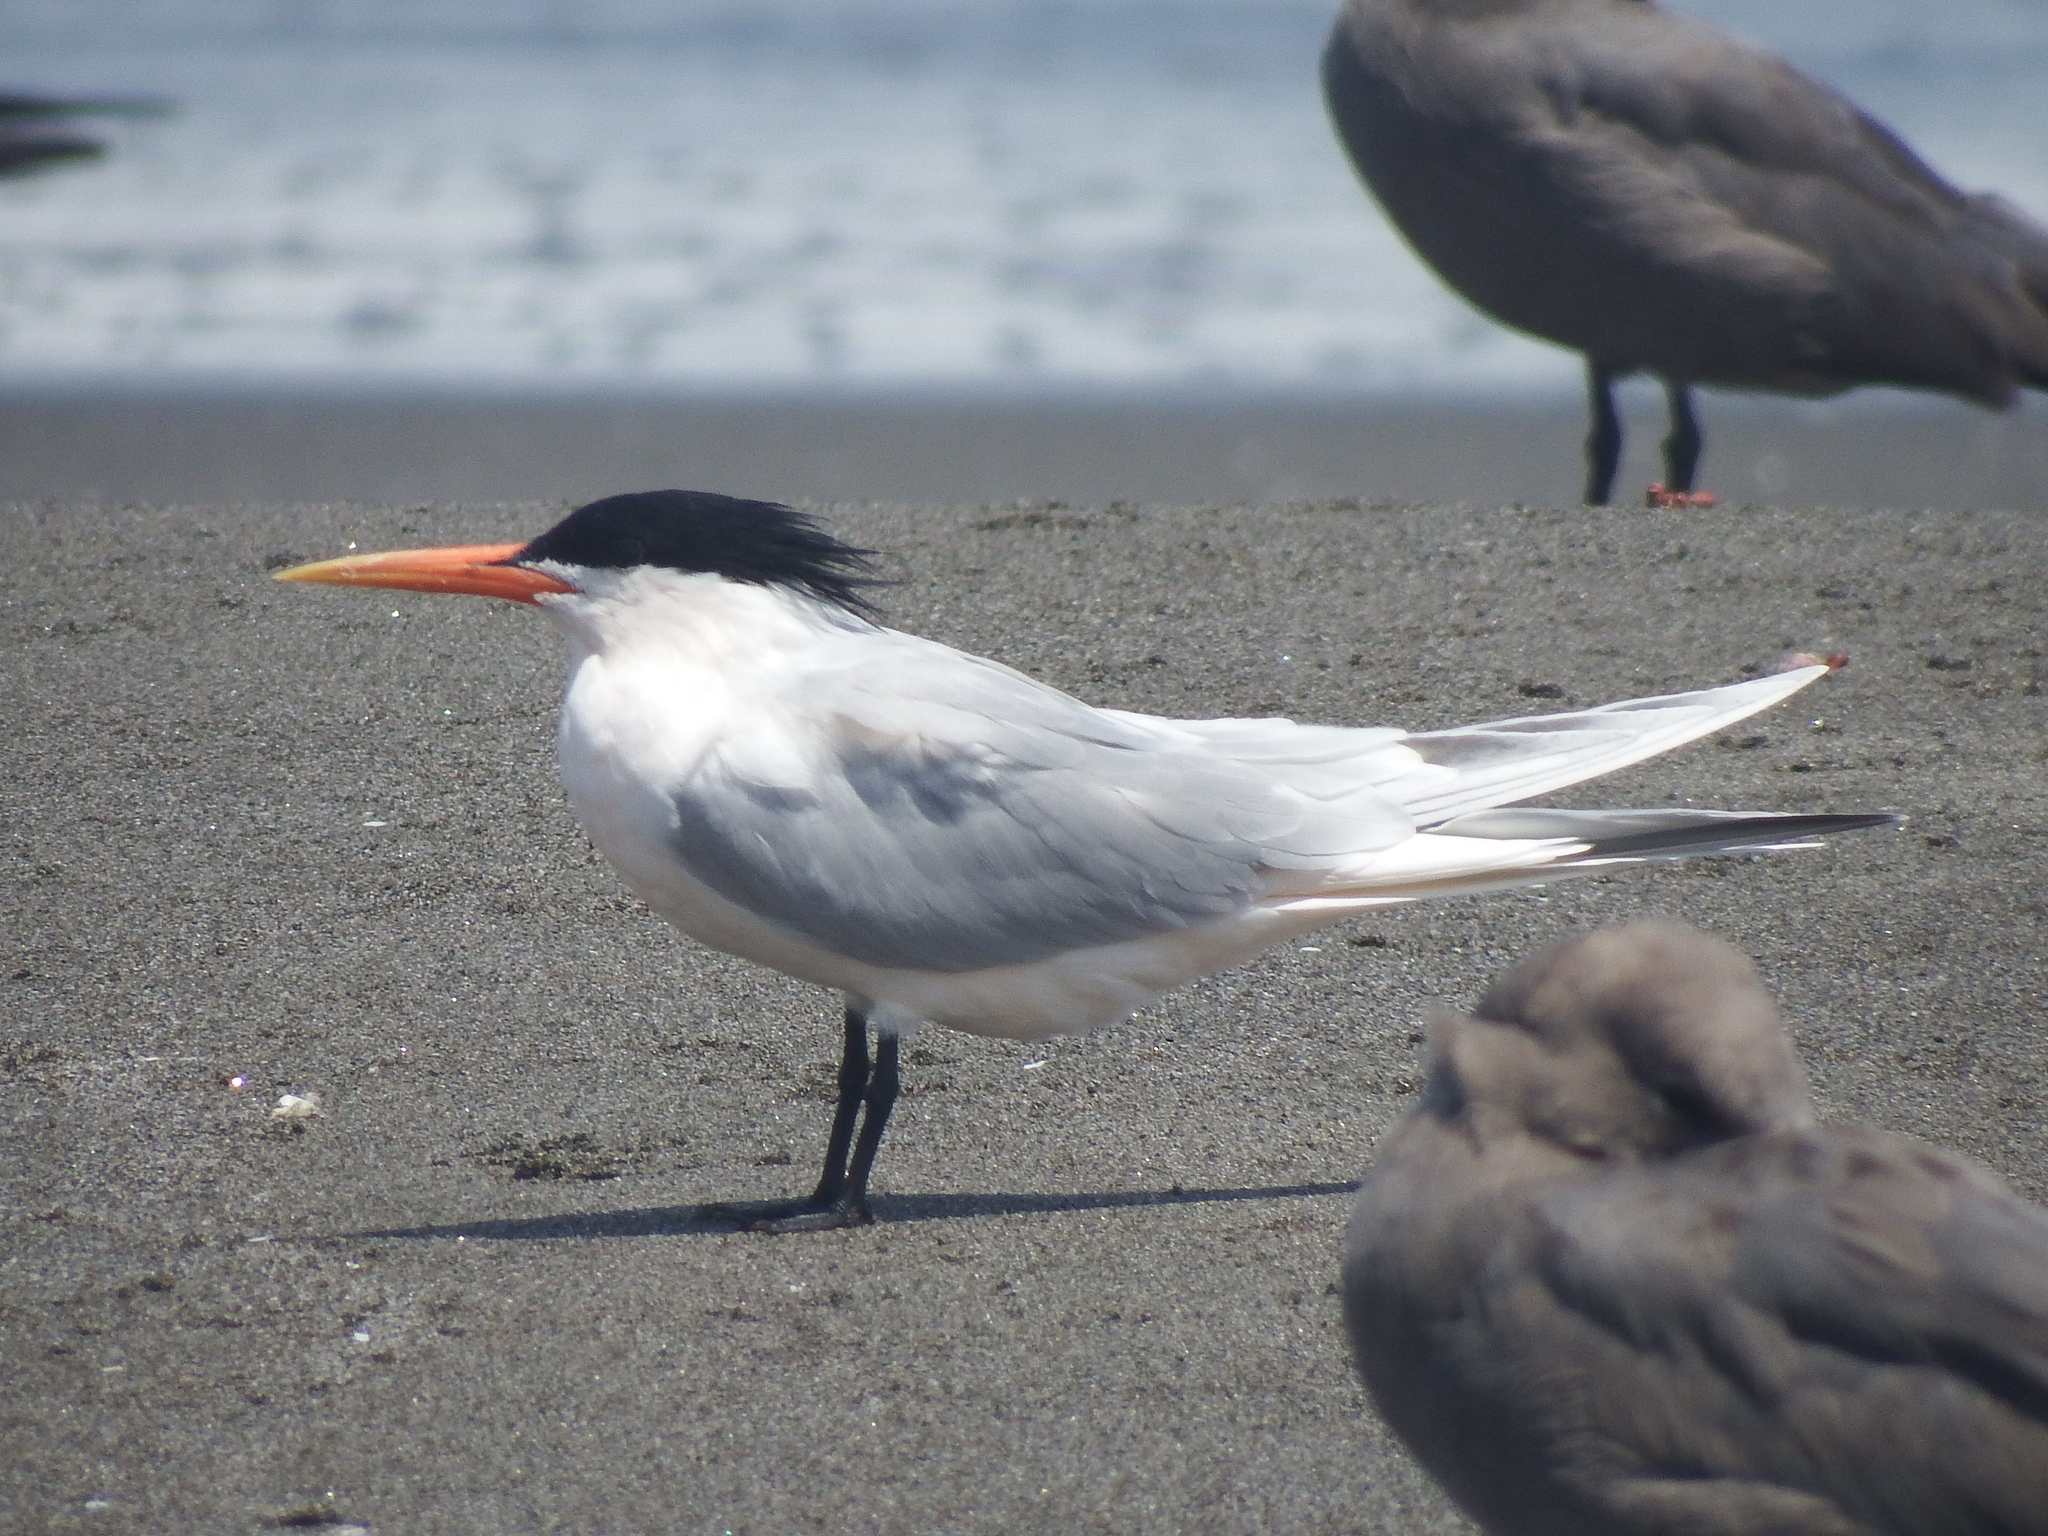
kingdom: Animalia
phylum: Chordata
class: Aves
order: Charadriiformes
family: Laridae
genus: Thalasseus
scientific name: Thalasseus elegans
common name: Elegant tern
